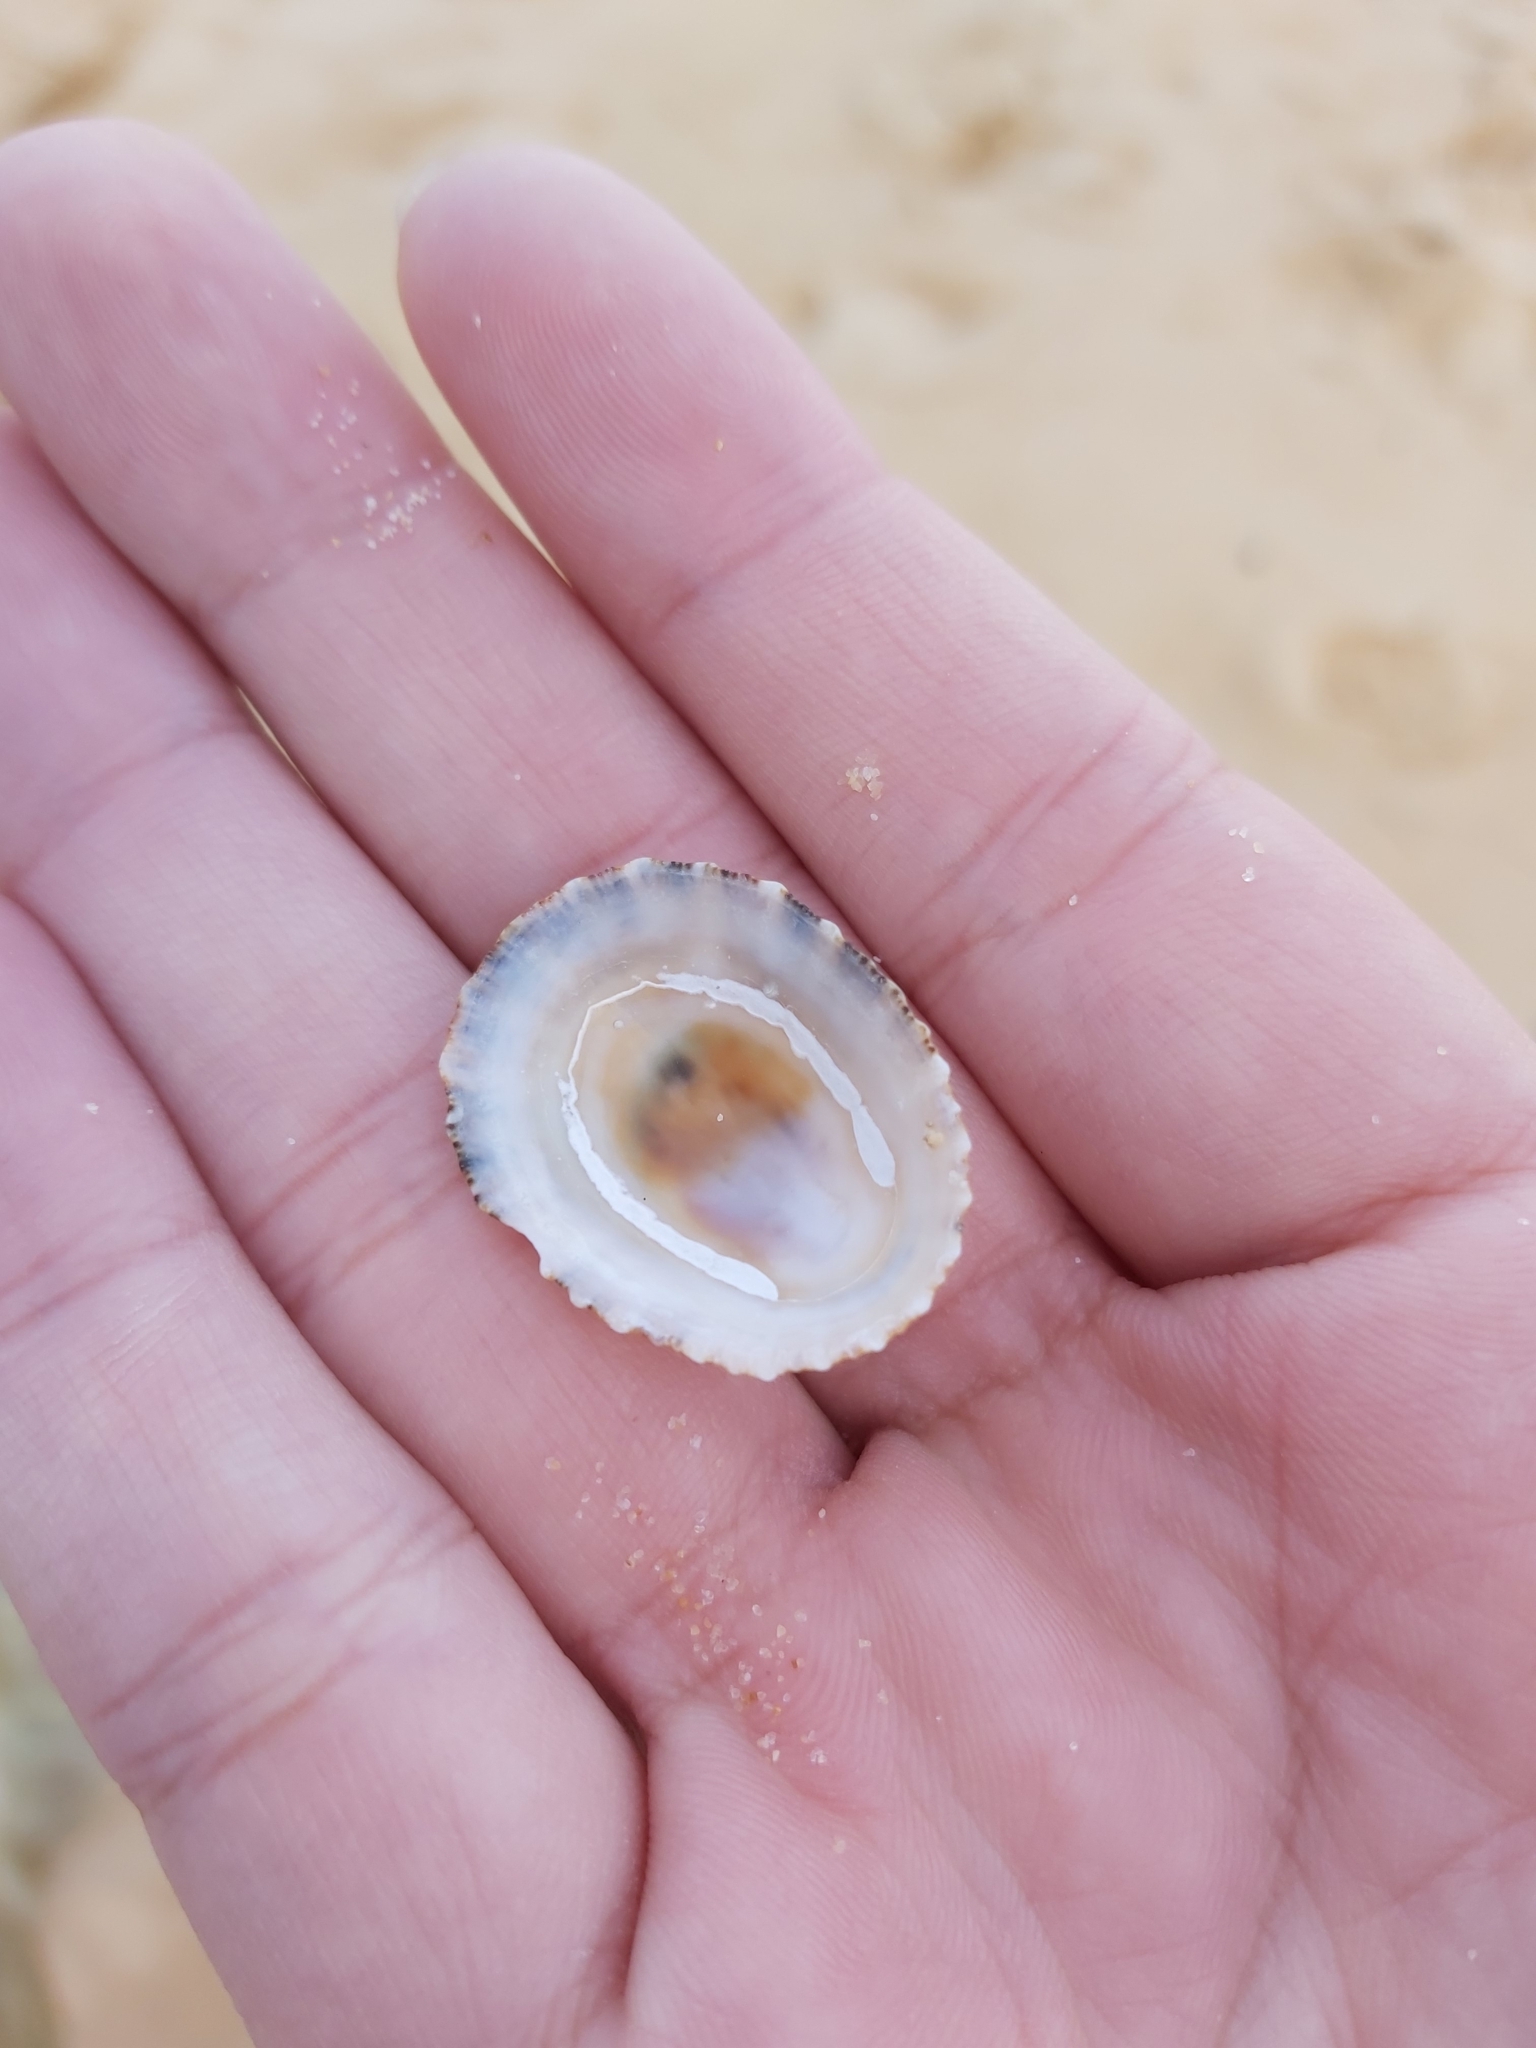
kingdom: Animalia
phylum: Mollusca
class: Gastropoda
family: Patellidae
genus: Scutellastra
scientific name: Scutellastra peronii
